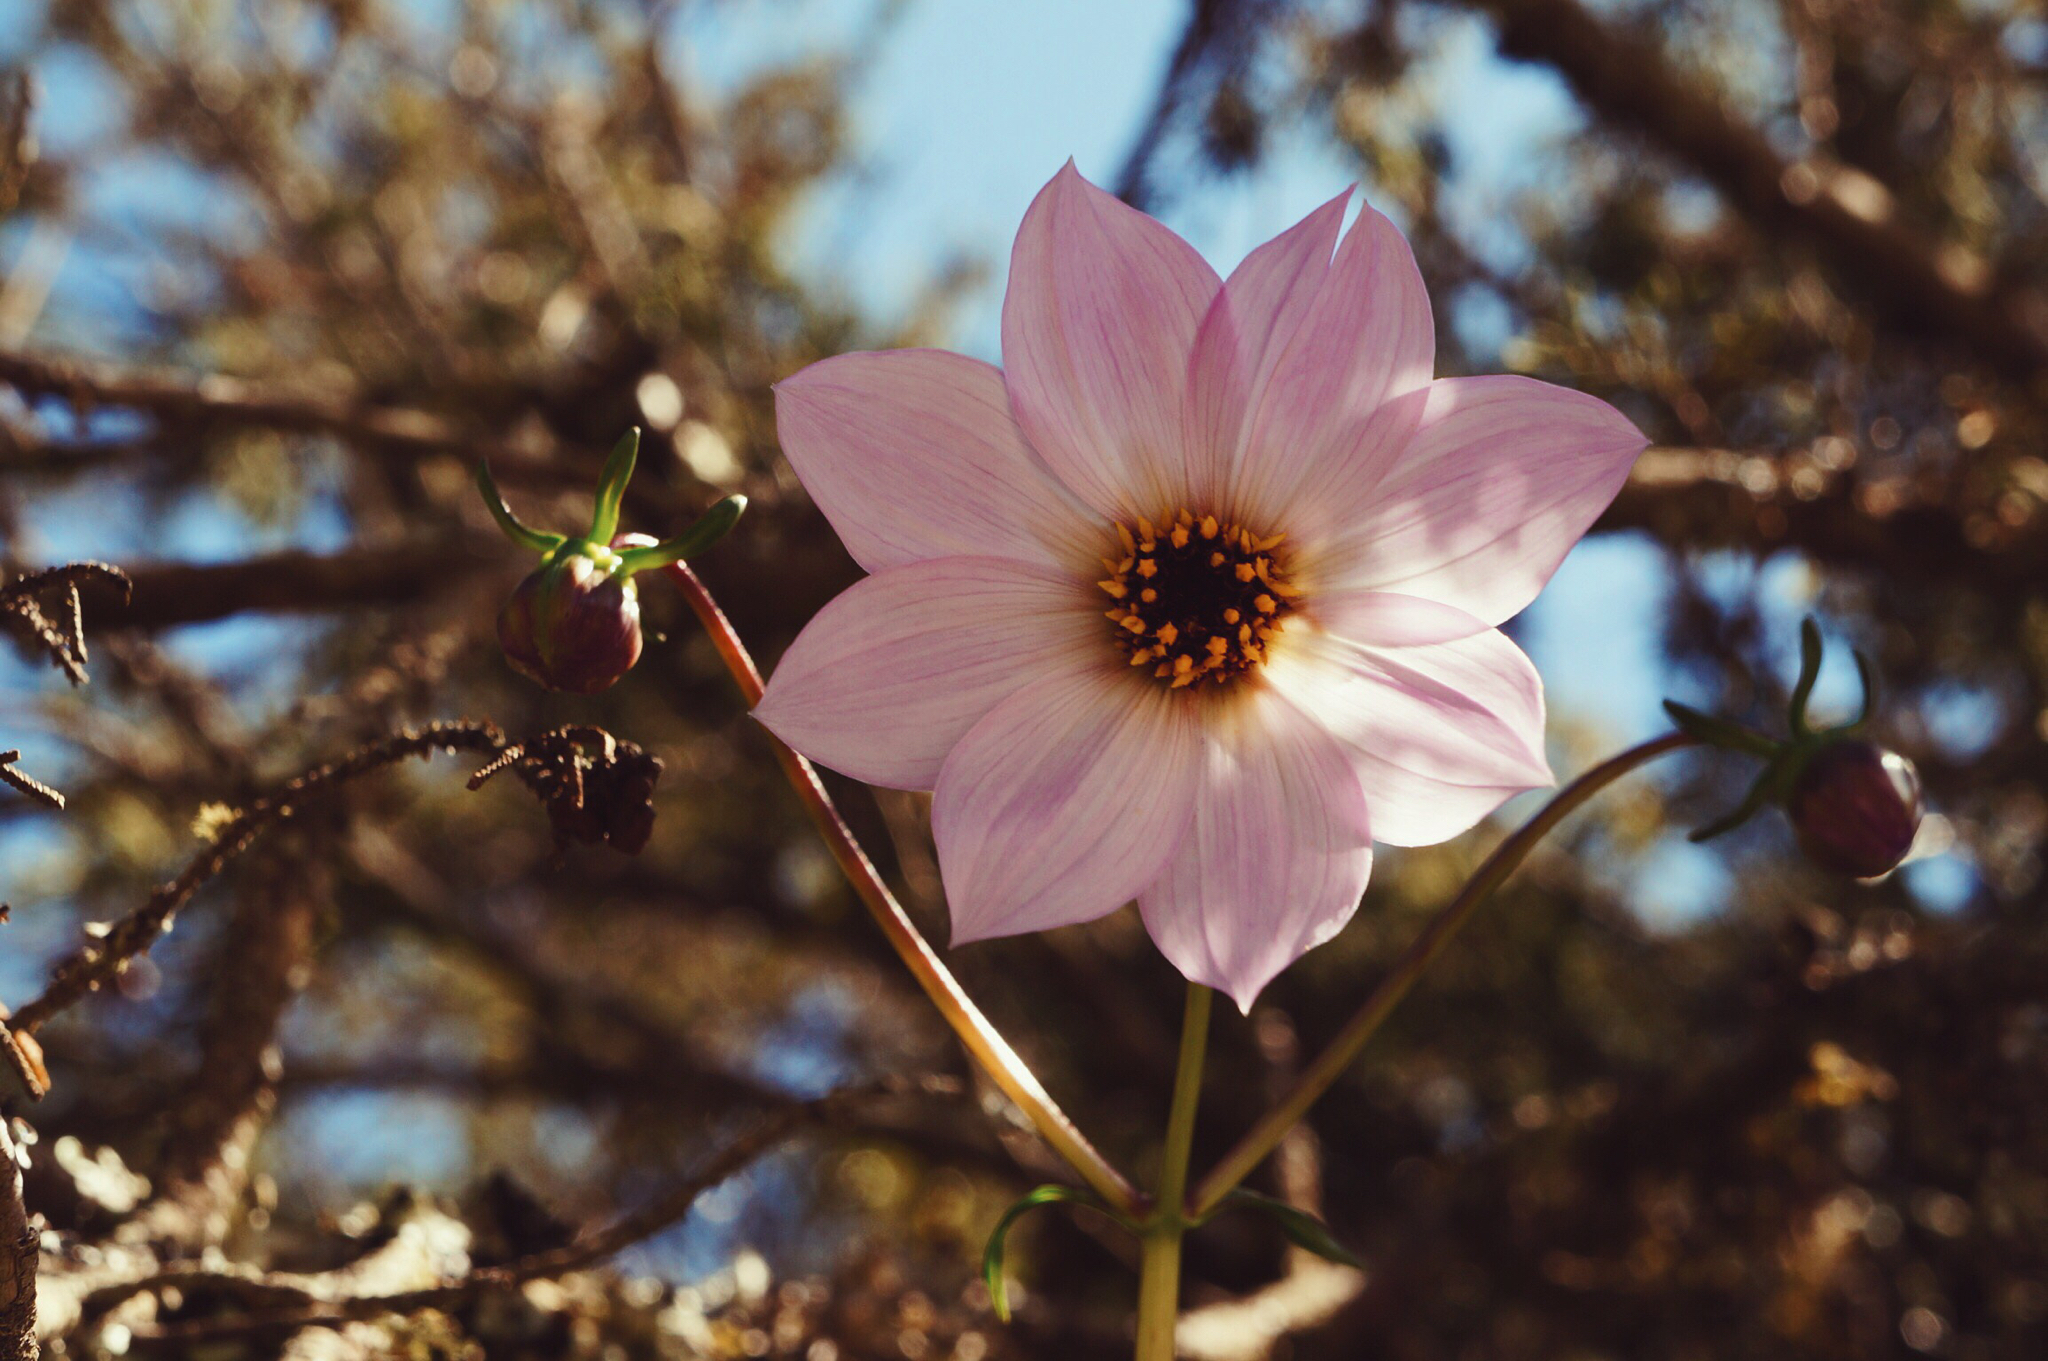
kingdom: Plantae
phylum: Tracheophyta
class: Magnoliopsida
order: Asterales
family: Asteraceae
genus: Dahlia
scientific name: Dahlia merckii
